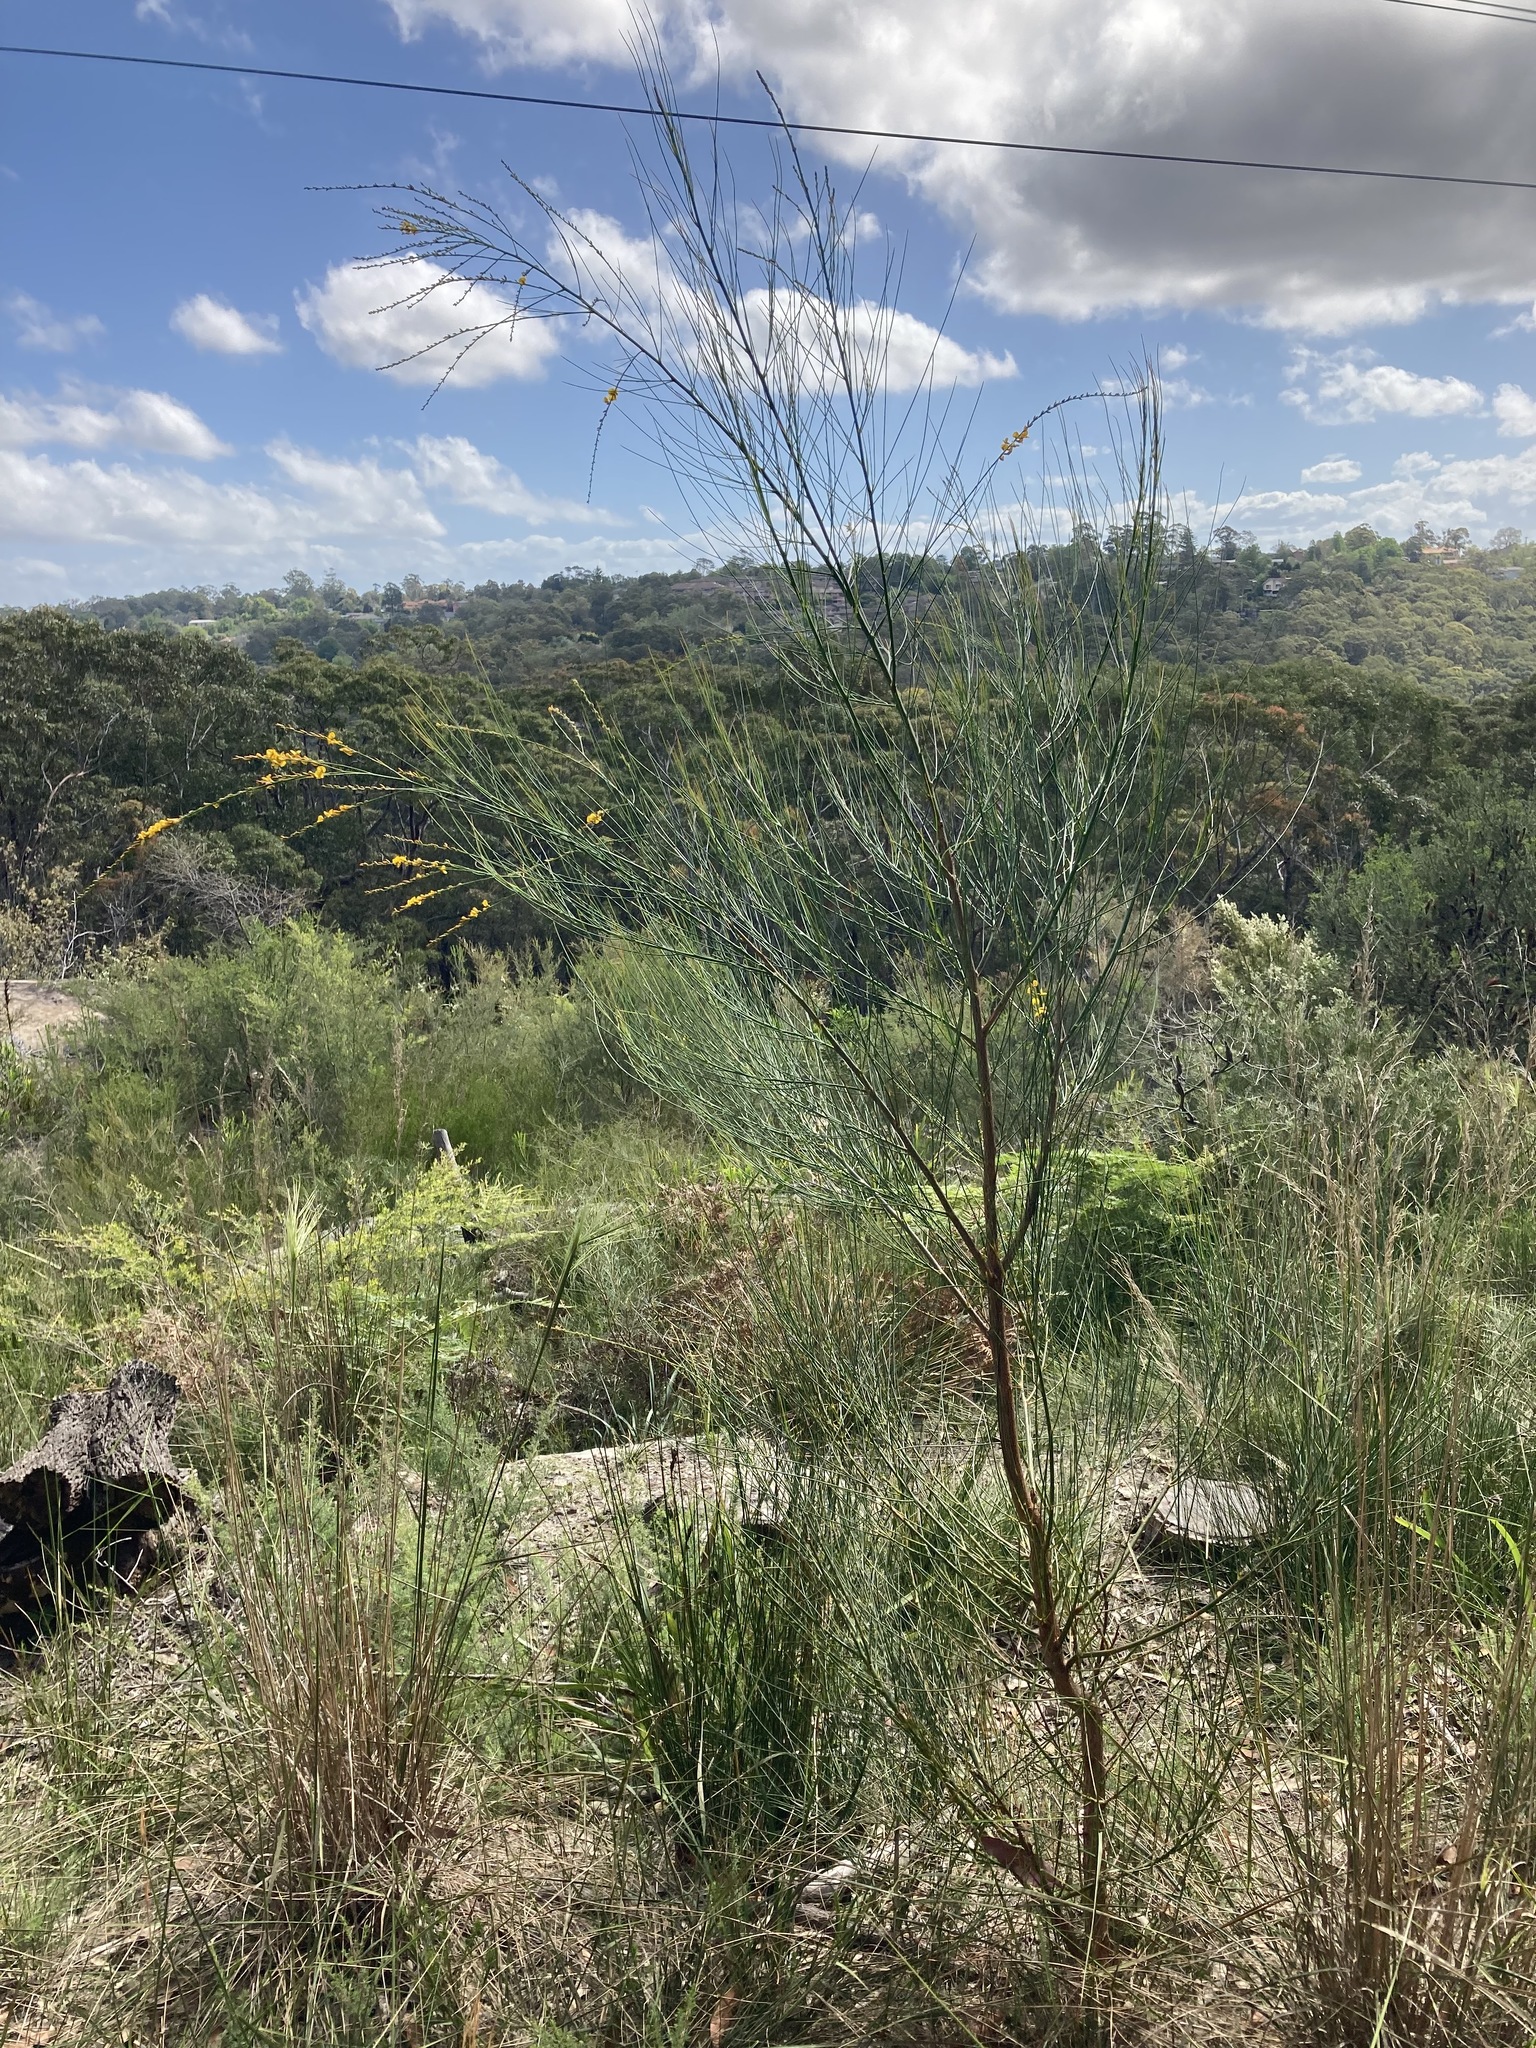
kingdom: Plantae
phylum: Tracheophyta
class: Magnoliopsida
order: Fabales
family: Fabaceae
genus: Viminaria
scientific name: Viminaria juncea
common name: Golden spray
